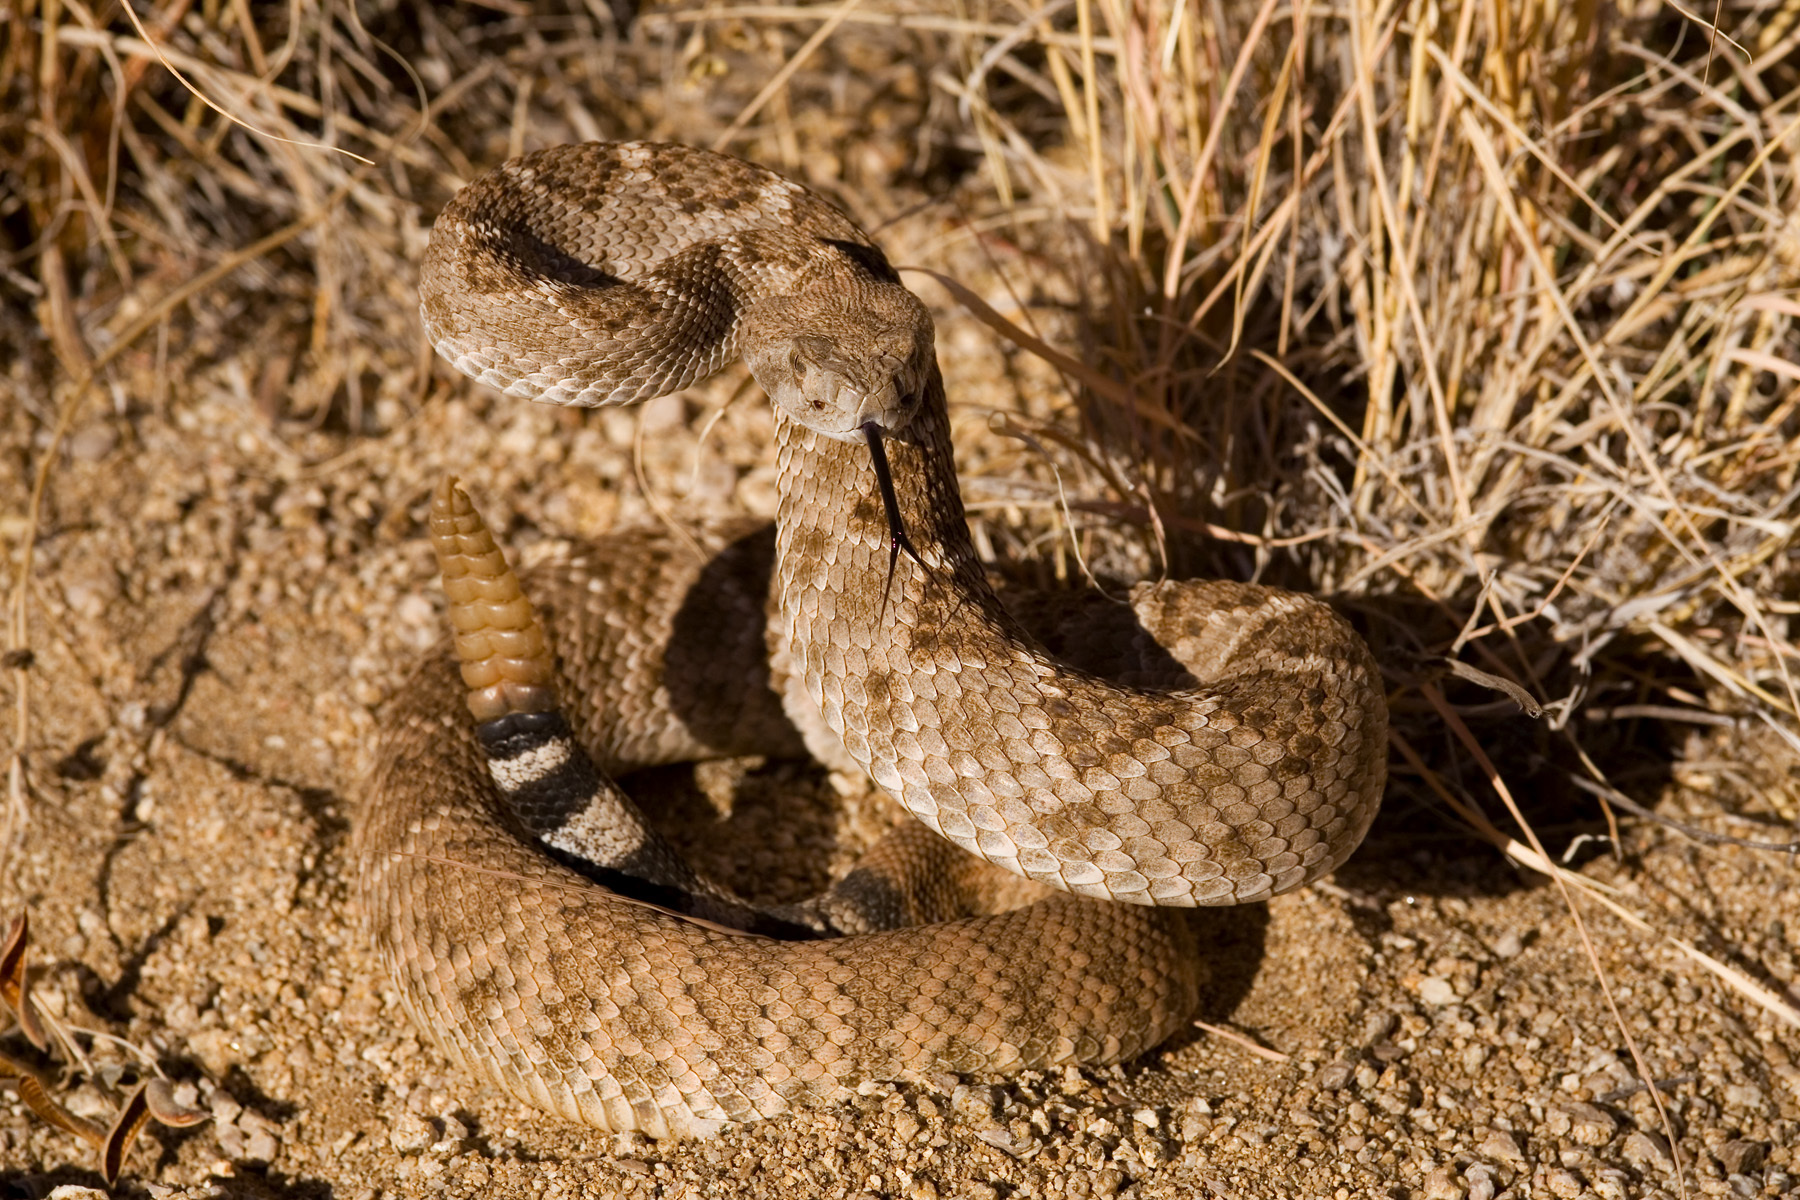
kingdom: Animalia
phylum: Chordata
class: Squamata
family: Viperidae
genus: Crotalus
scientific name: Crotalus atrox
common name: Western diamond-backed rattlesnake
